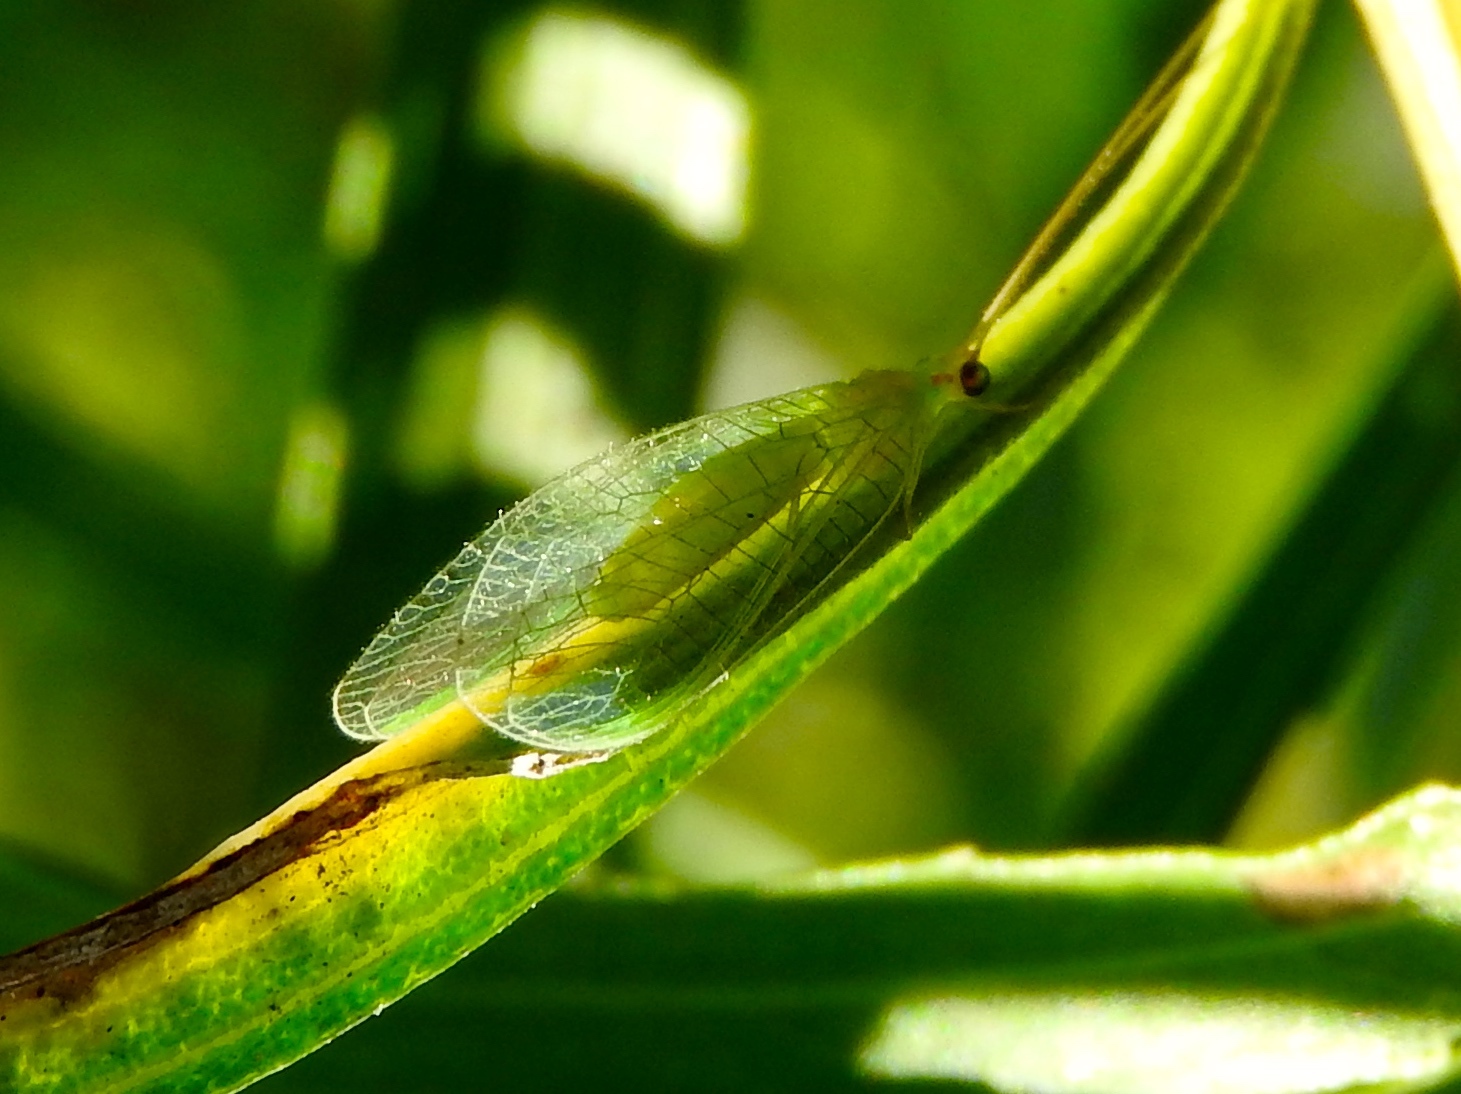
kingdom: Animalia
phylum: Arthropoda
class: Insecta
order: Neuroptera
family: Chrysopidae
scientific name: Chrysopidae
